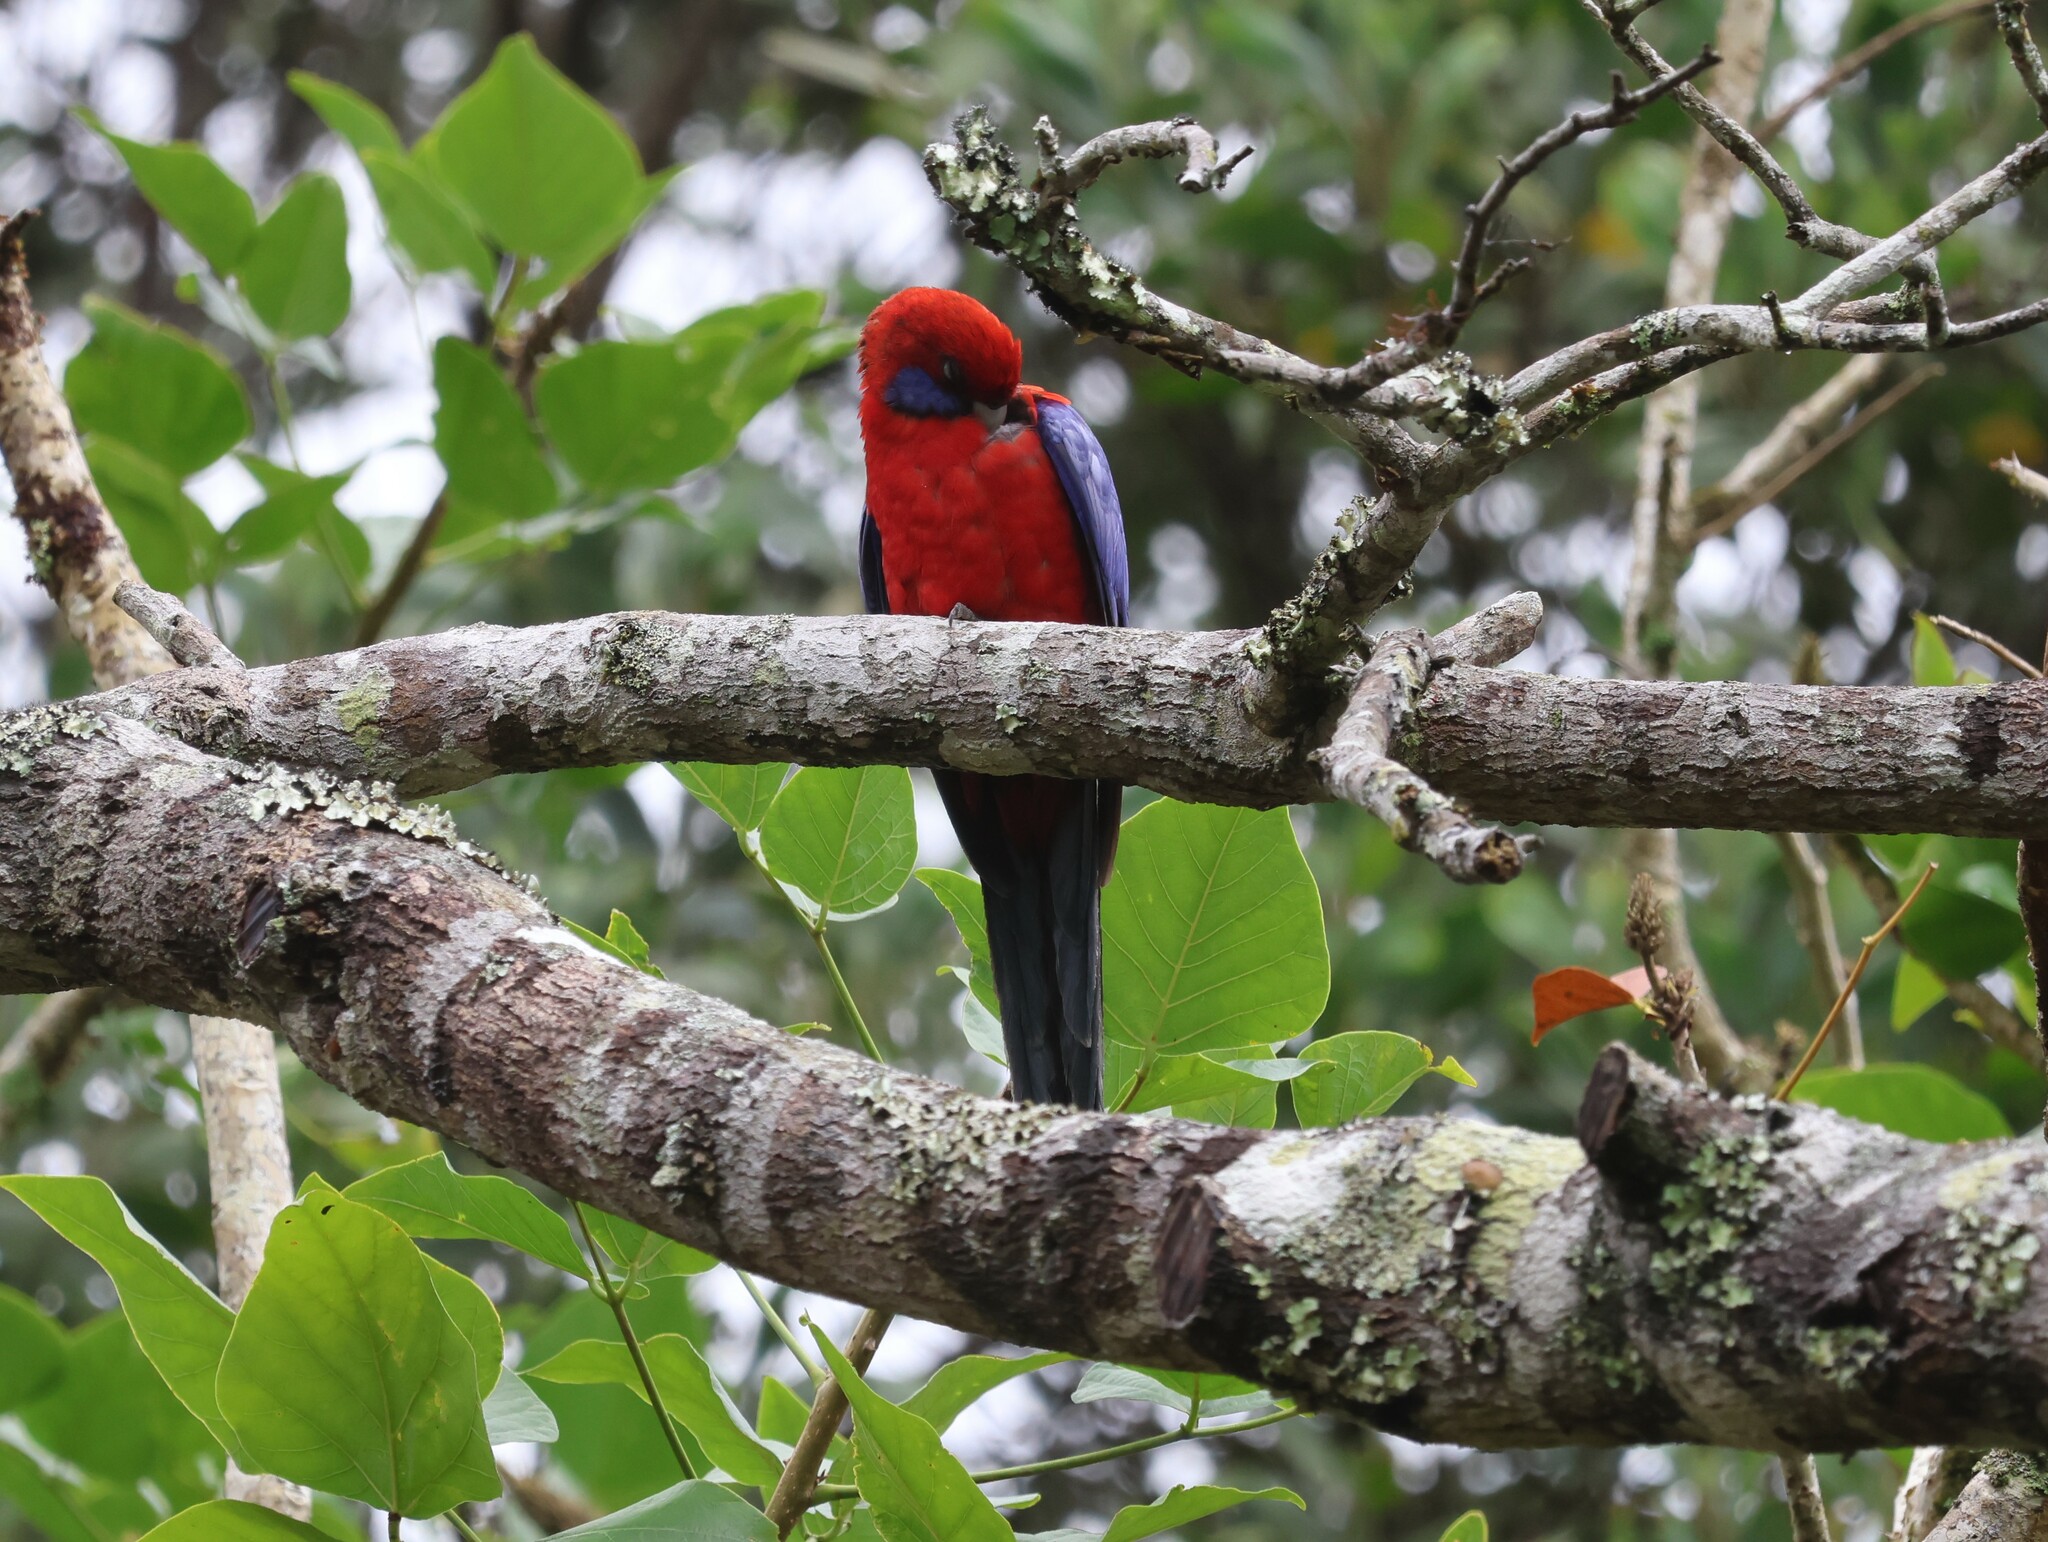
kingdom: Animalia
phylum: Chordata
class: Aves
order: Psittaciformes
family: Psittacidae
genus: Platycercus
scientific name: Platycercus elegans
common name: Crimson rosella
